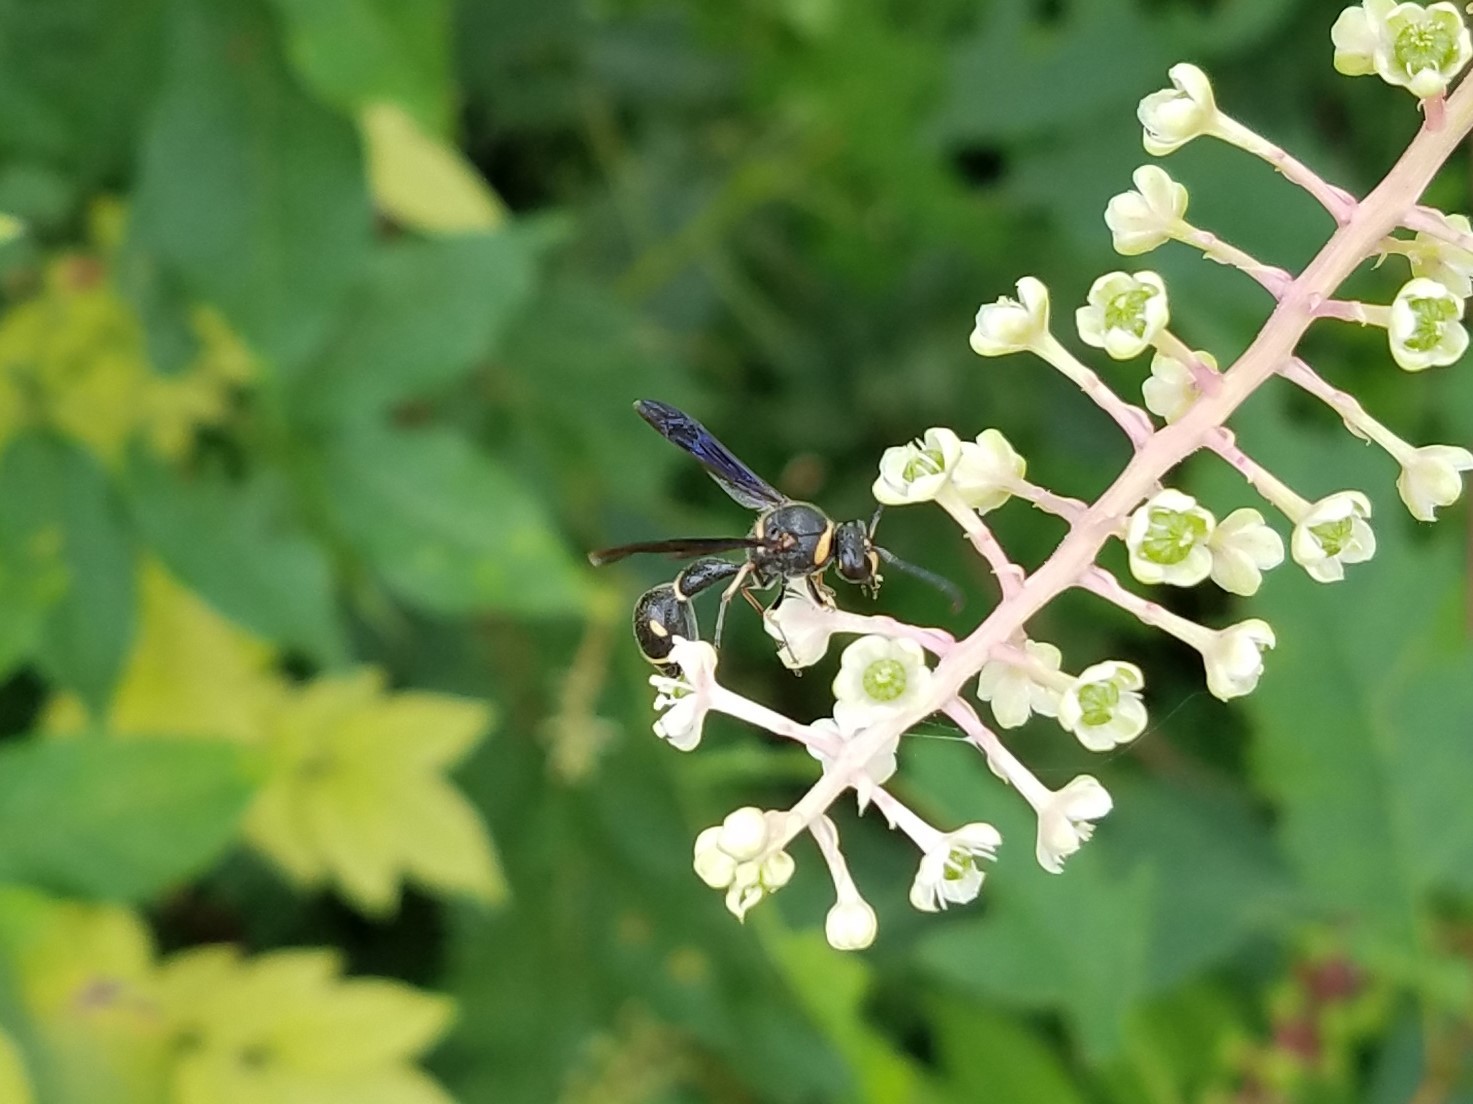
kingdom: Animalia
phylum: Arthropoda
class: Insecta
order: Hymenoptera
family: Vespidae
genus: Eumenes
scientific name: Eumenes fraternus
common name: Fraternal potter wasp
